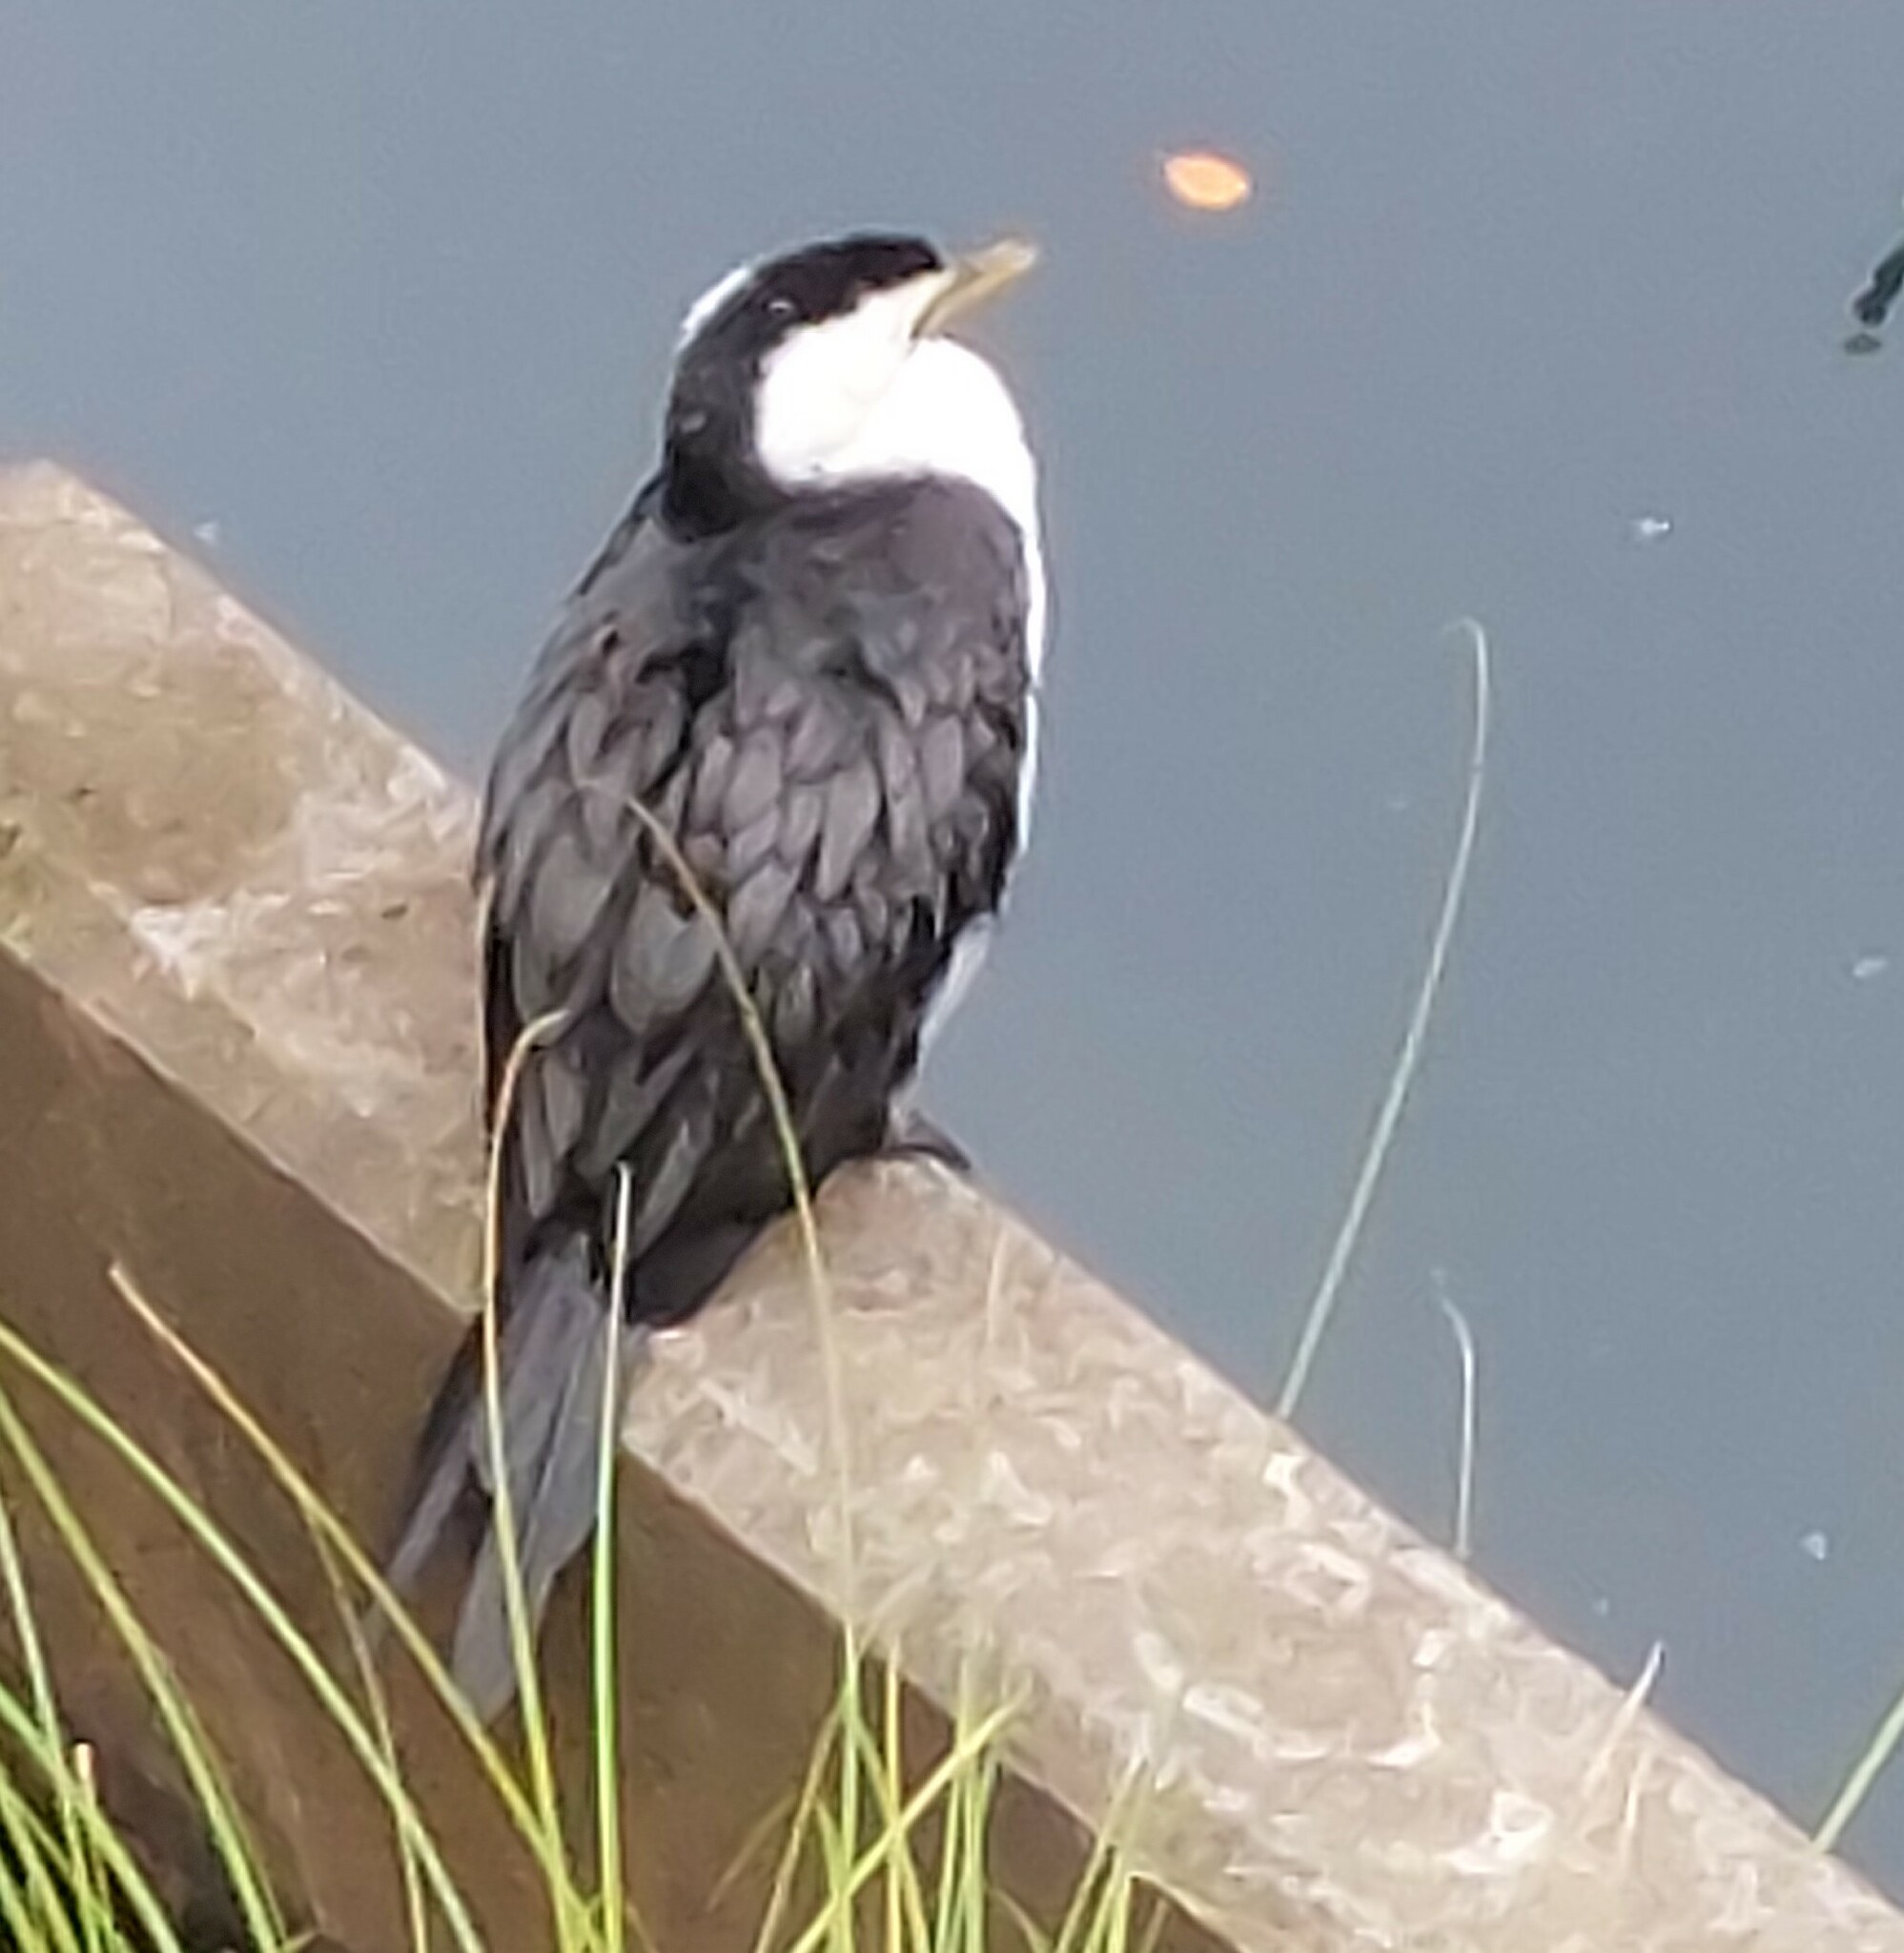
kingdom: Animalia
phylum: Chordata
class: Aves
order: Suliformes
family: Phalacrocoracidae
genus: Microcarbo
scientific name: Microcarbo melanoleucos
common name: Little pied cormorant
